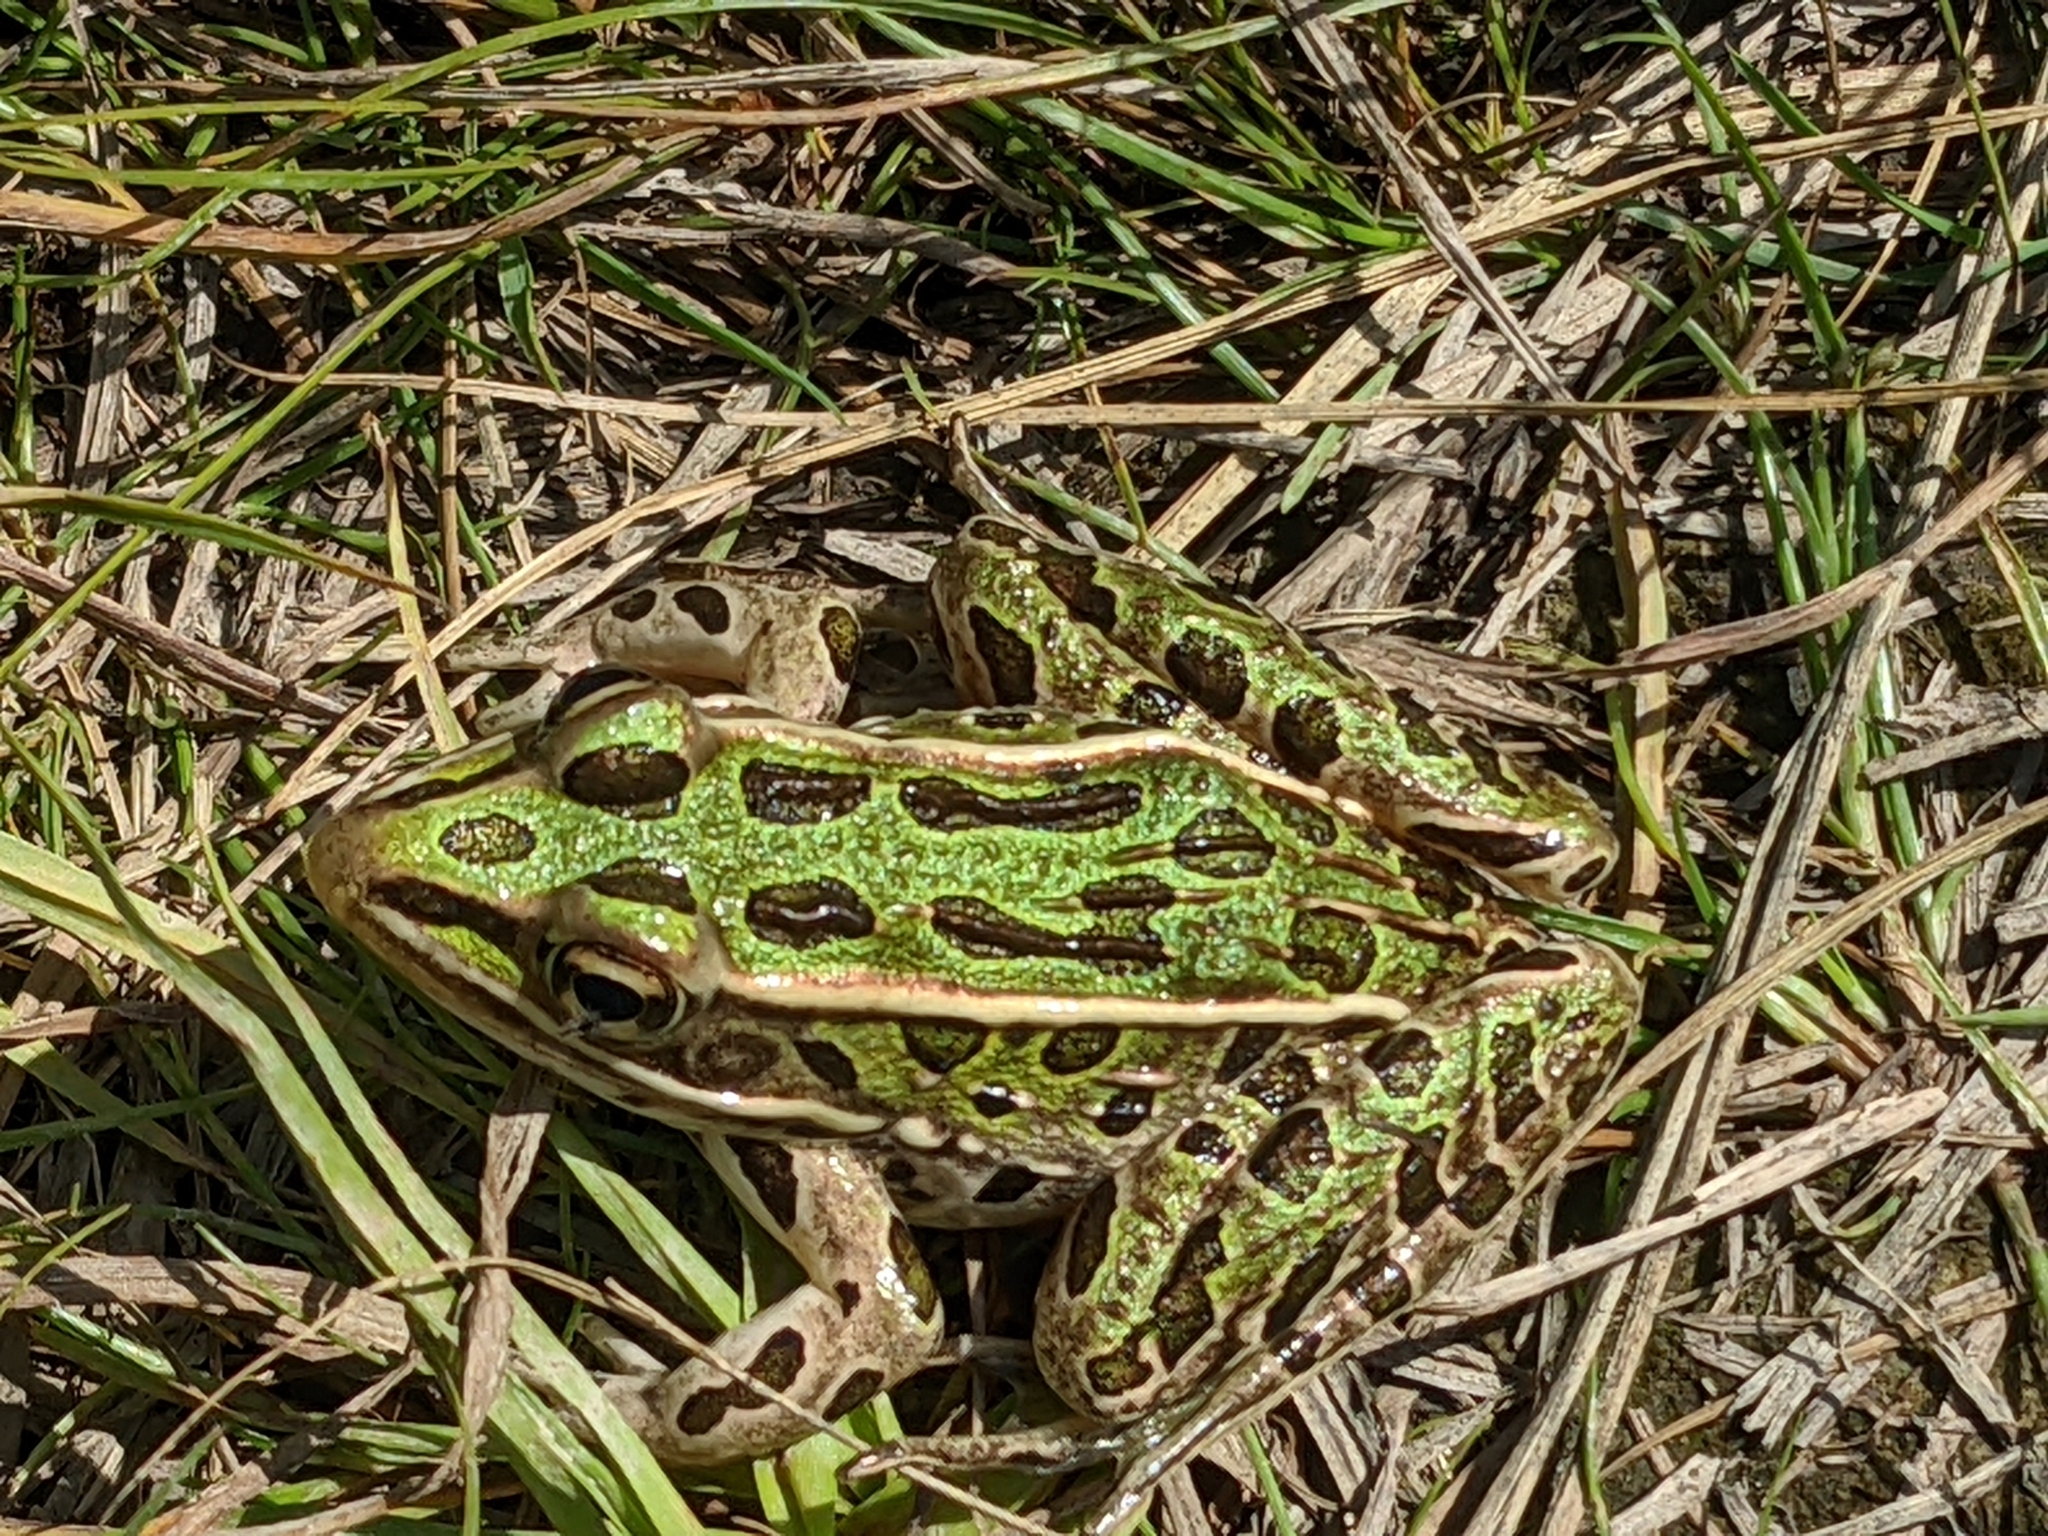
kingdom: Animalia
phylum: Chordata
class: Amphibia
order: Anura
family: Ranidae
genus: Lithobates
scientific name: Lithobates pipiens
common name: Northern leopard frog
